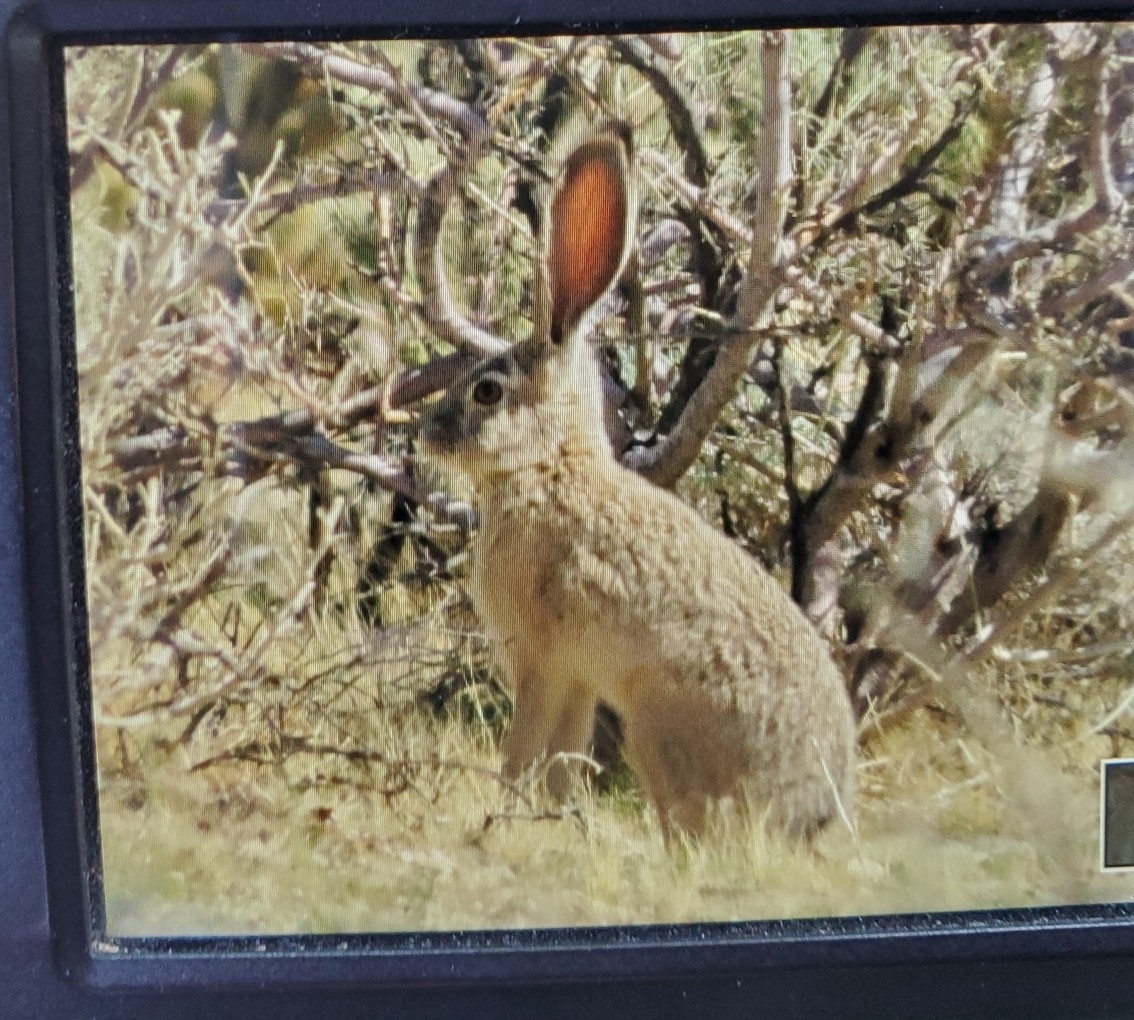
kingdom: Animalia
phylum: Chordata
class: Mammalia
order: Lagomorpha
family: Leporidae
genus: Lepus
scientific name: Lepus californicus
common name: Black-tailed jackrabbit
